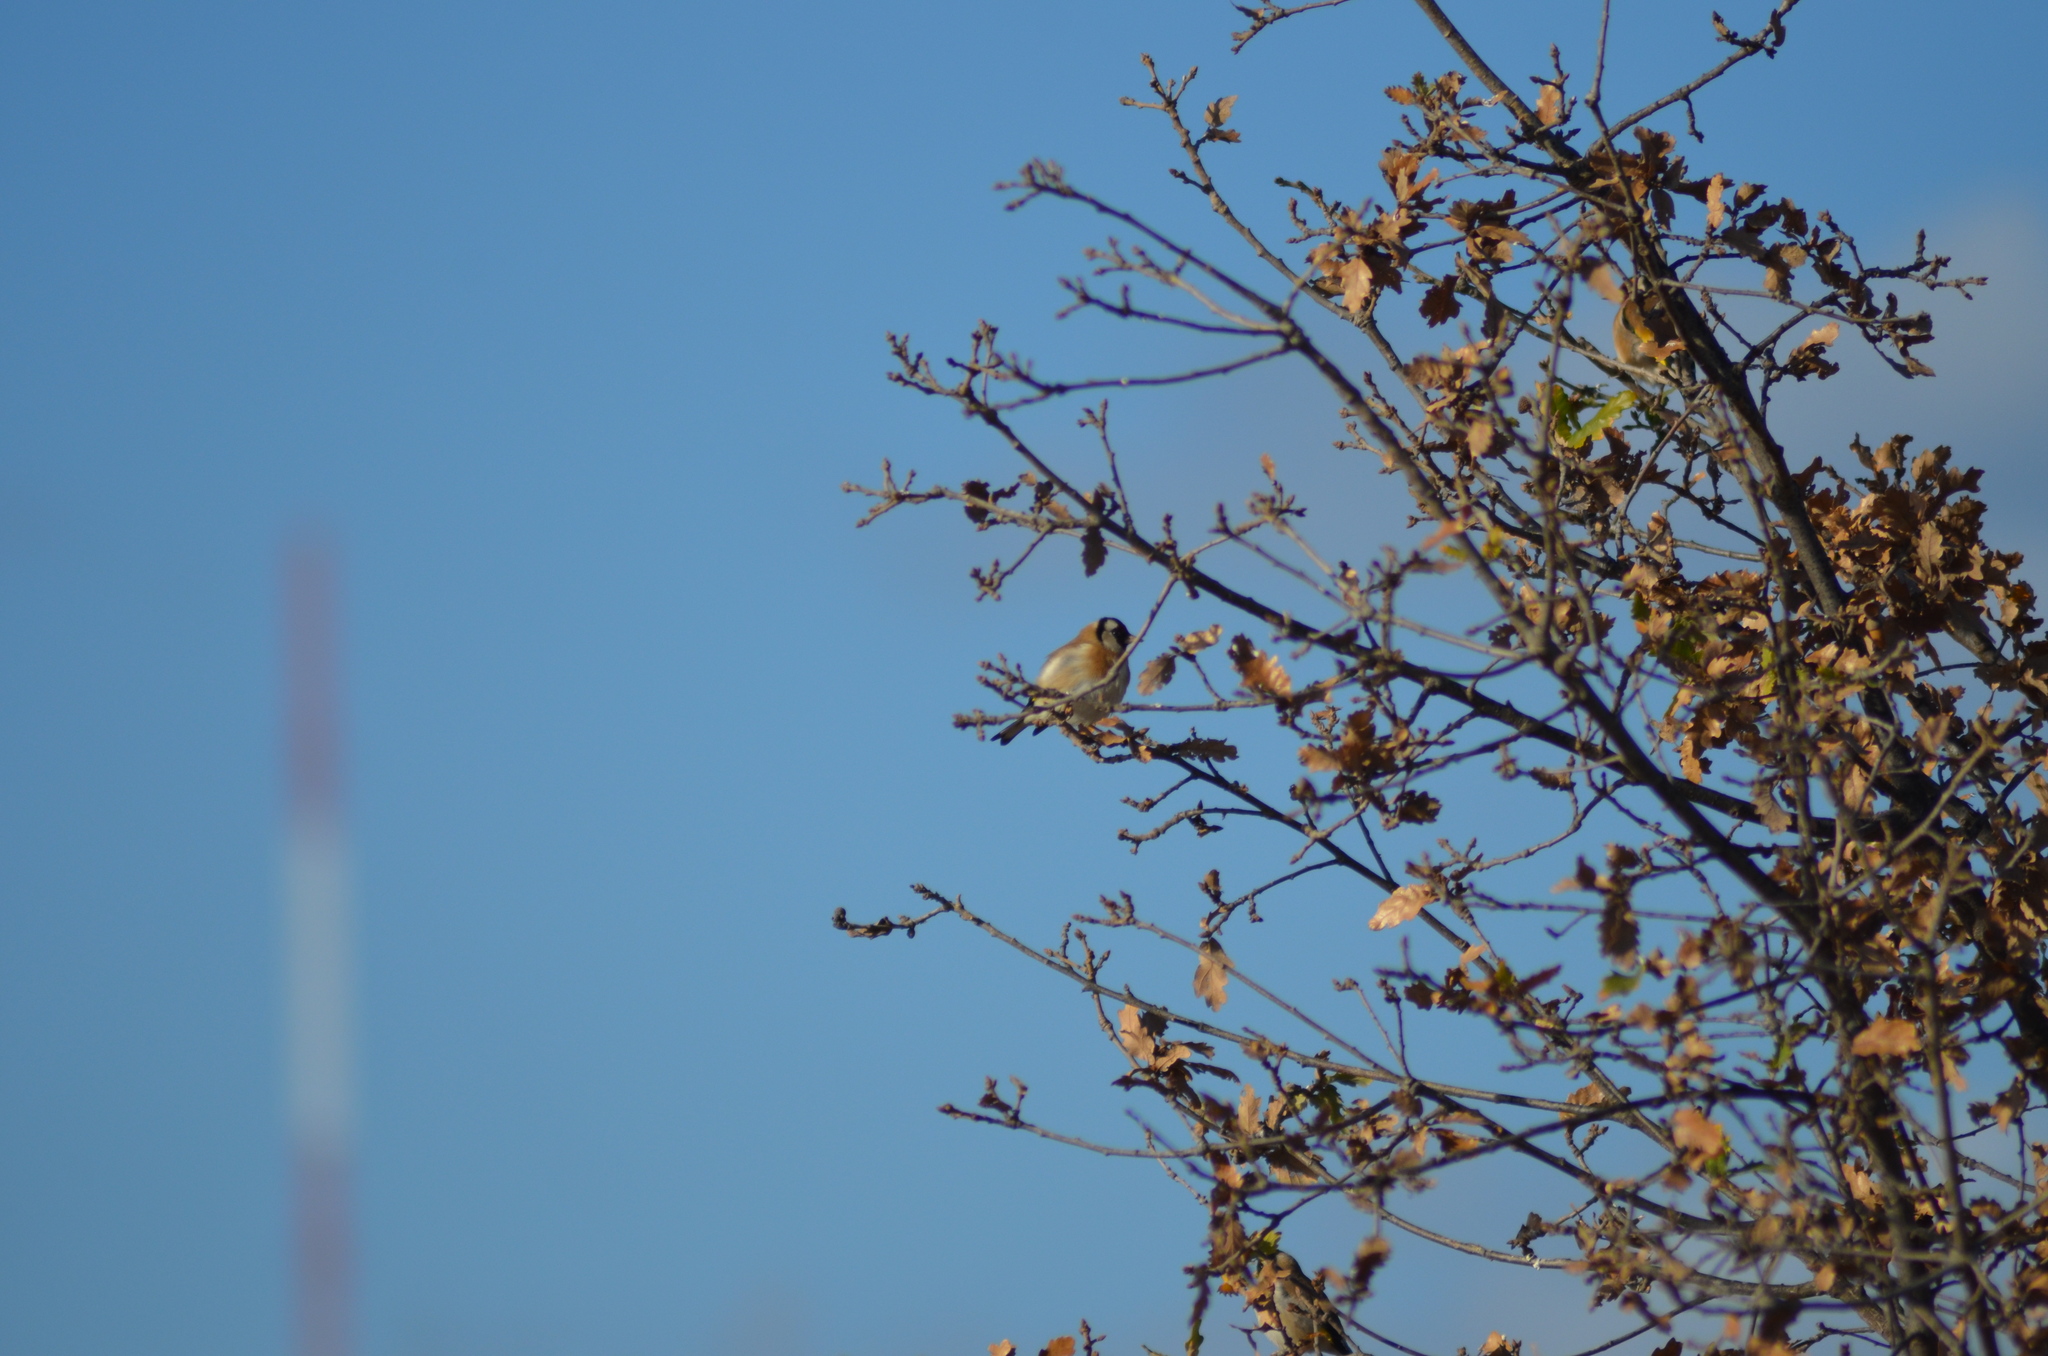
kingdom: Animalia
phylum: Chordata
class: Aves
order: Passeriformes
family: Fringillidae
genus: Carduelis
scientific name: Carduelis carduelis
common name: European goldfinch
